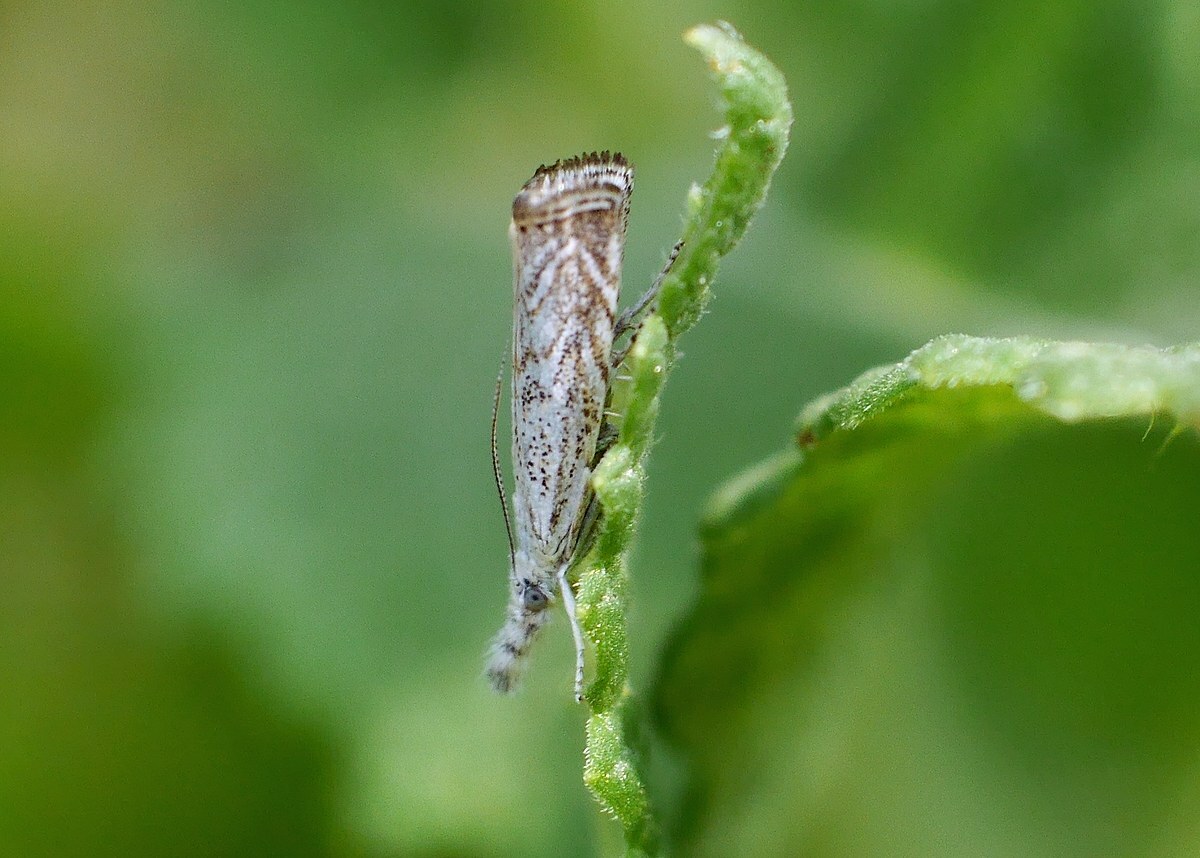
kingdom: Animalia
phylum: Arthropoda
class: Insecta
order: Lepidoptera
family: Crambidae
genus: Platytes
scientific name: Platytes cerusella
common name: Little grass-veneer
